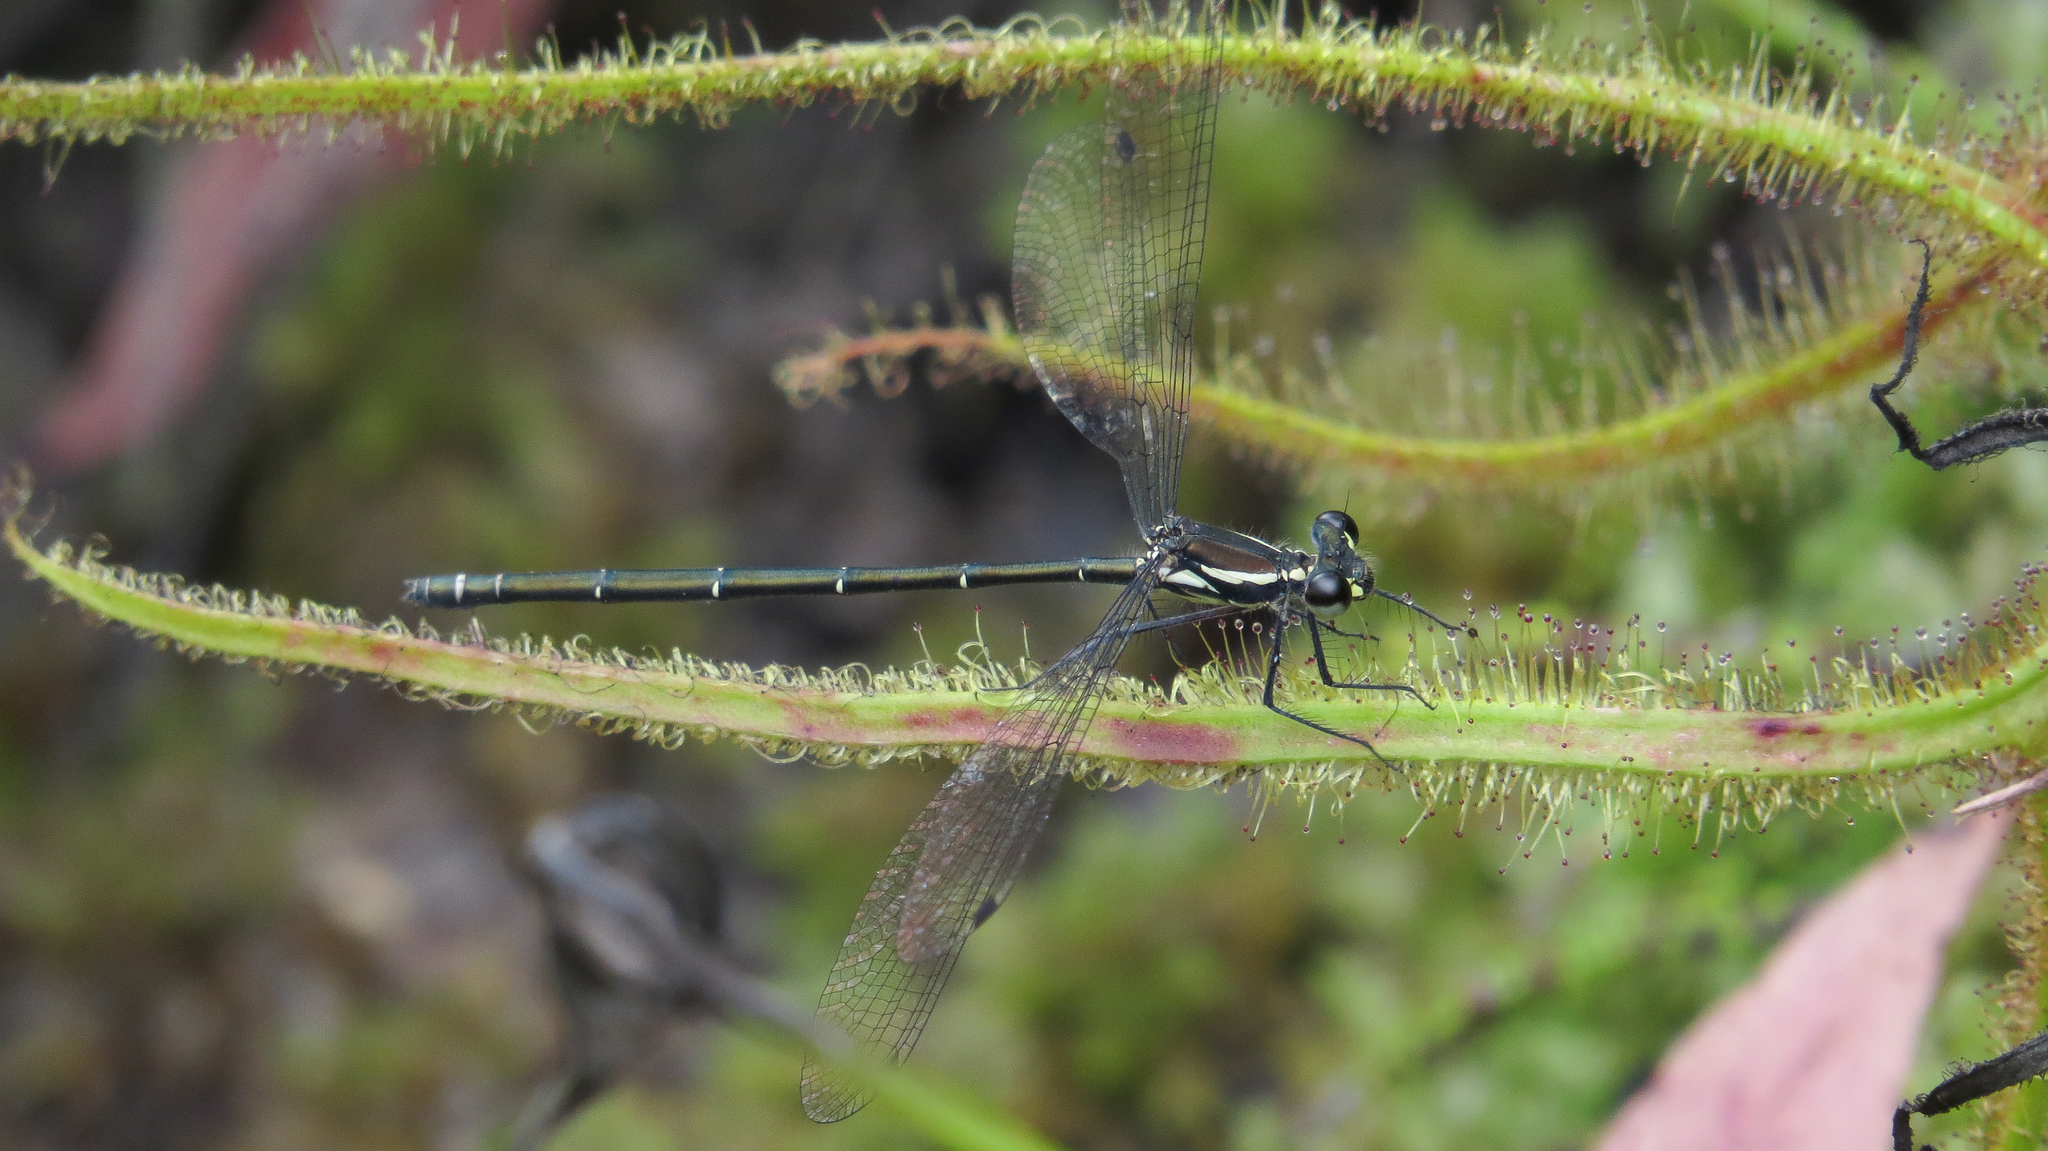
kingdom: Animalia
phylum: Arthropoda
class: Insecta
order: Odonata
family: Argiolestidae
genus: Austroargiolestes
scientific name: Austroargiolestes icteromelas
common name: Common flatwing
